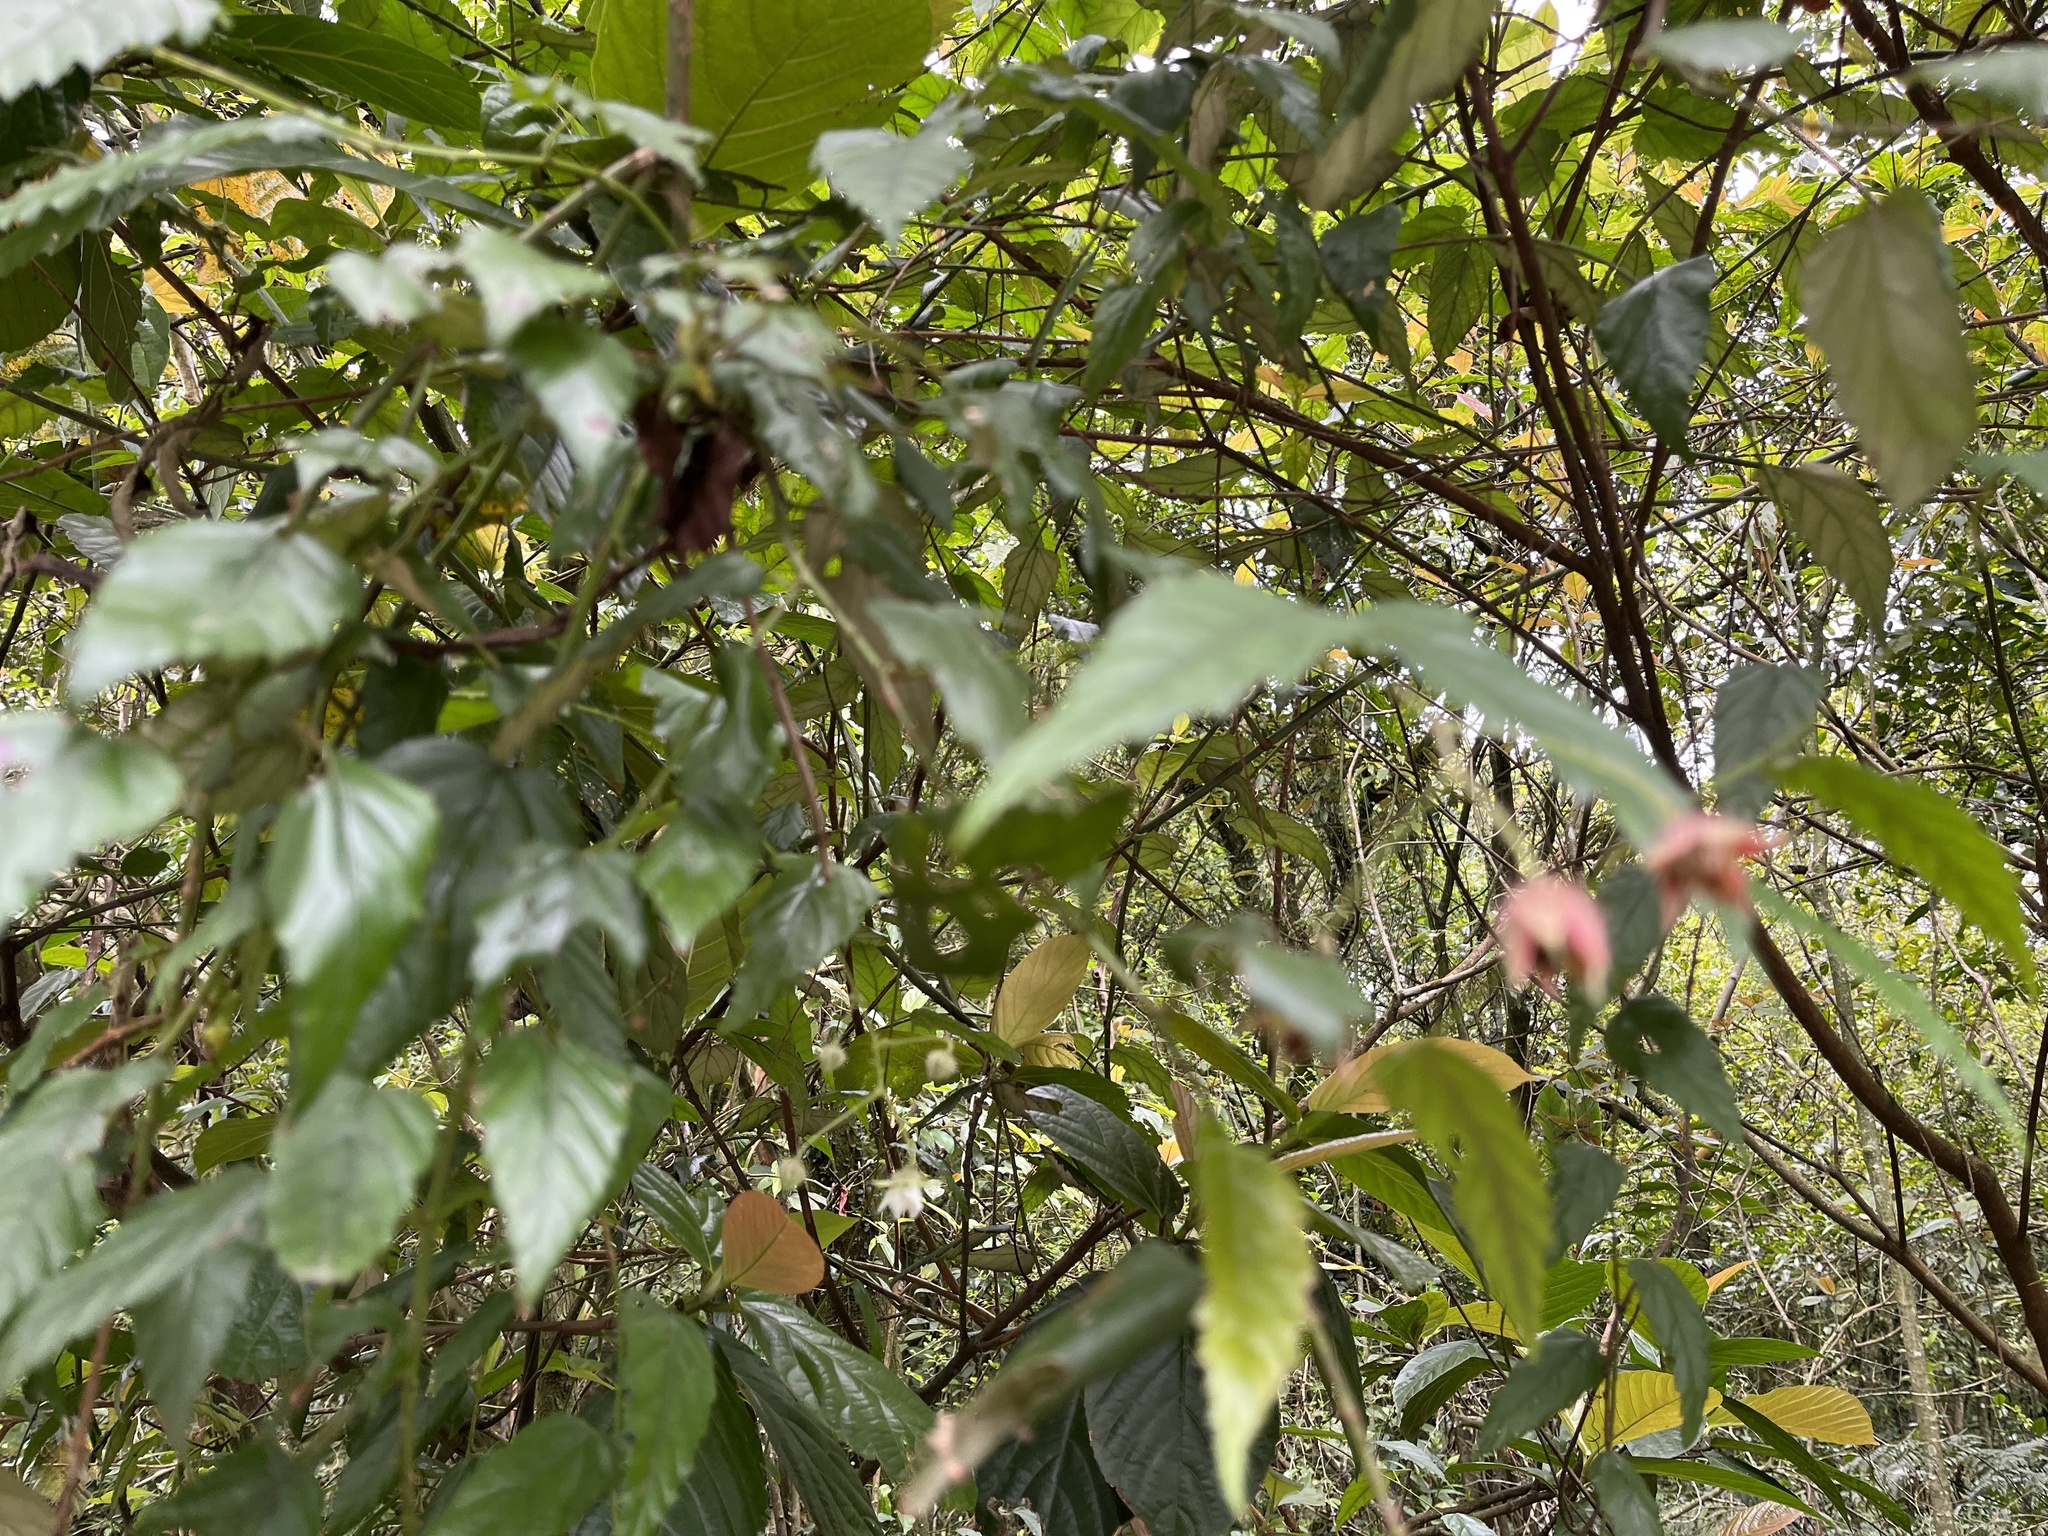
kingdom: Plantae
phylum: Tracheophyta
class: Magnoliopsida
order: Rosales
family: Rosaceae
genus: Rubus
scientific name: Rubus swinhoei
